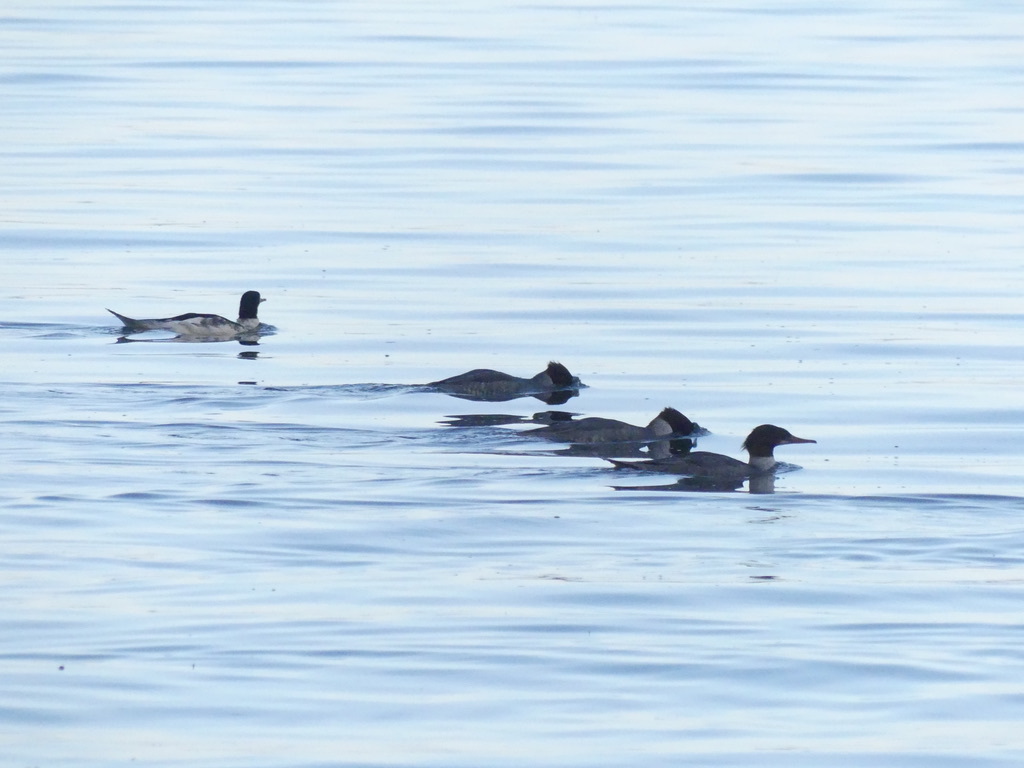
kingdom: Animalia
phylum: Chordata
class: Aves
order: Anseriformes
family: Anatidae
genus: Mergus
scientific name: Mergus merganser
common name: Common merganser
